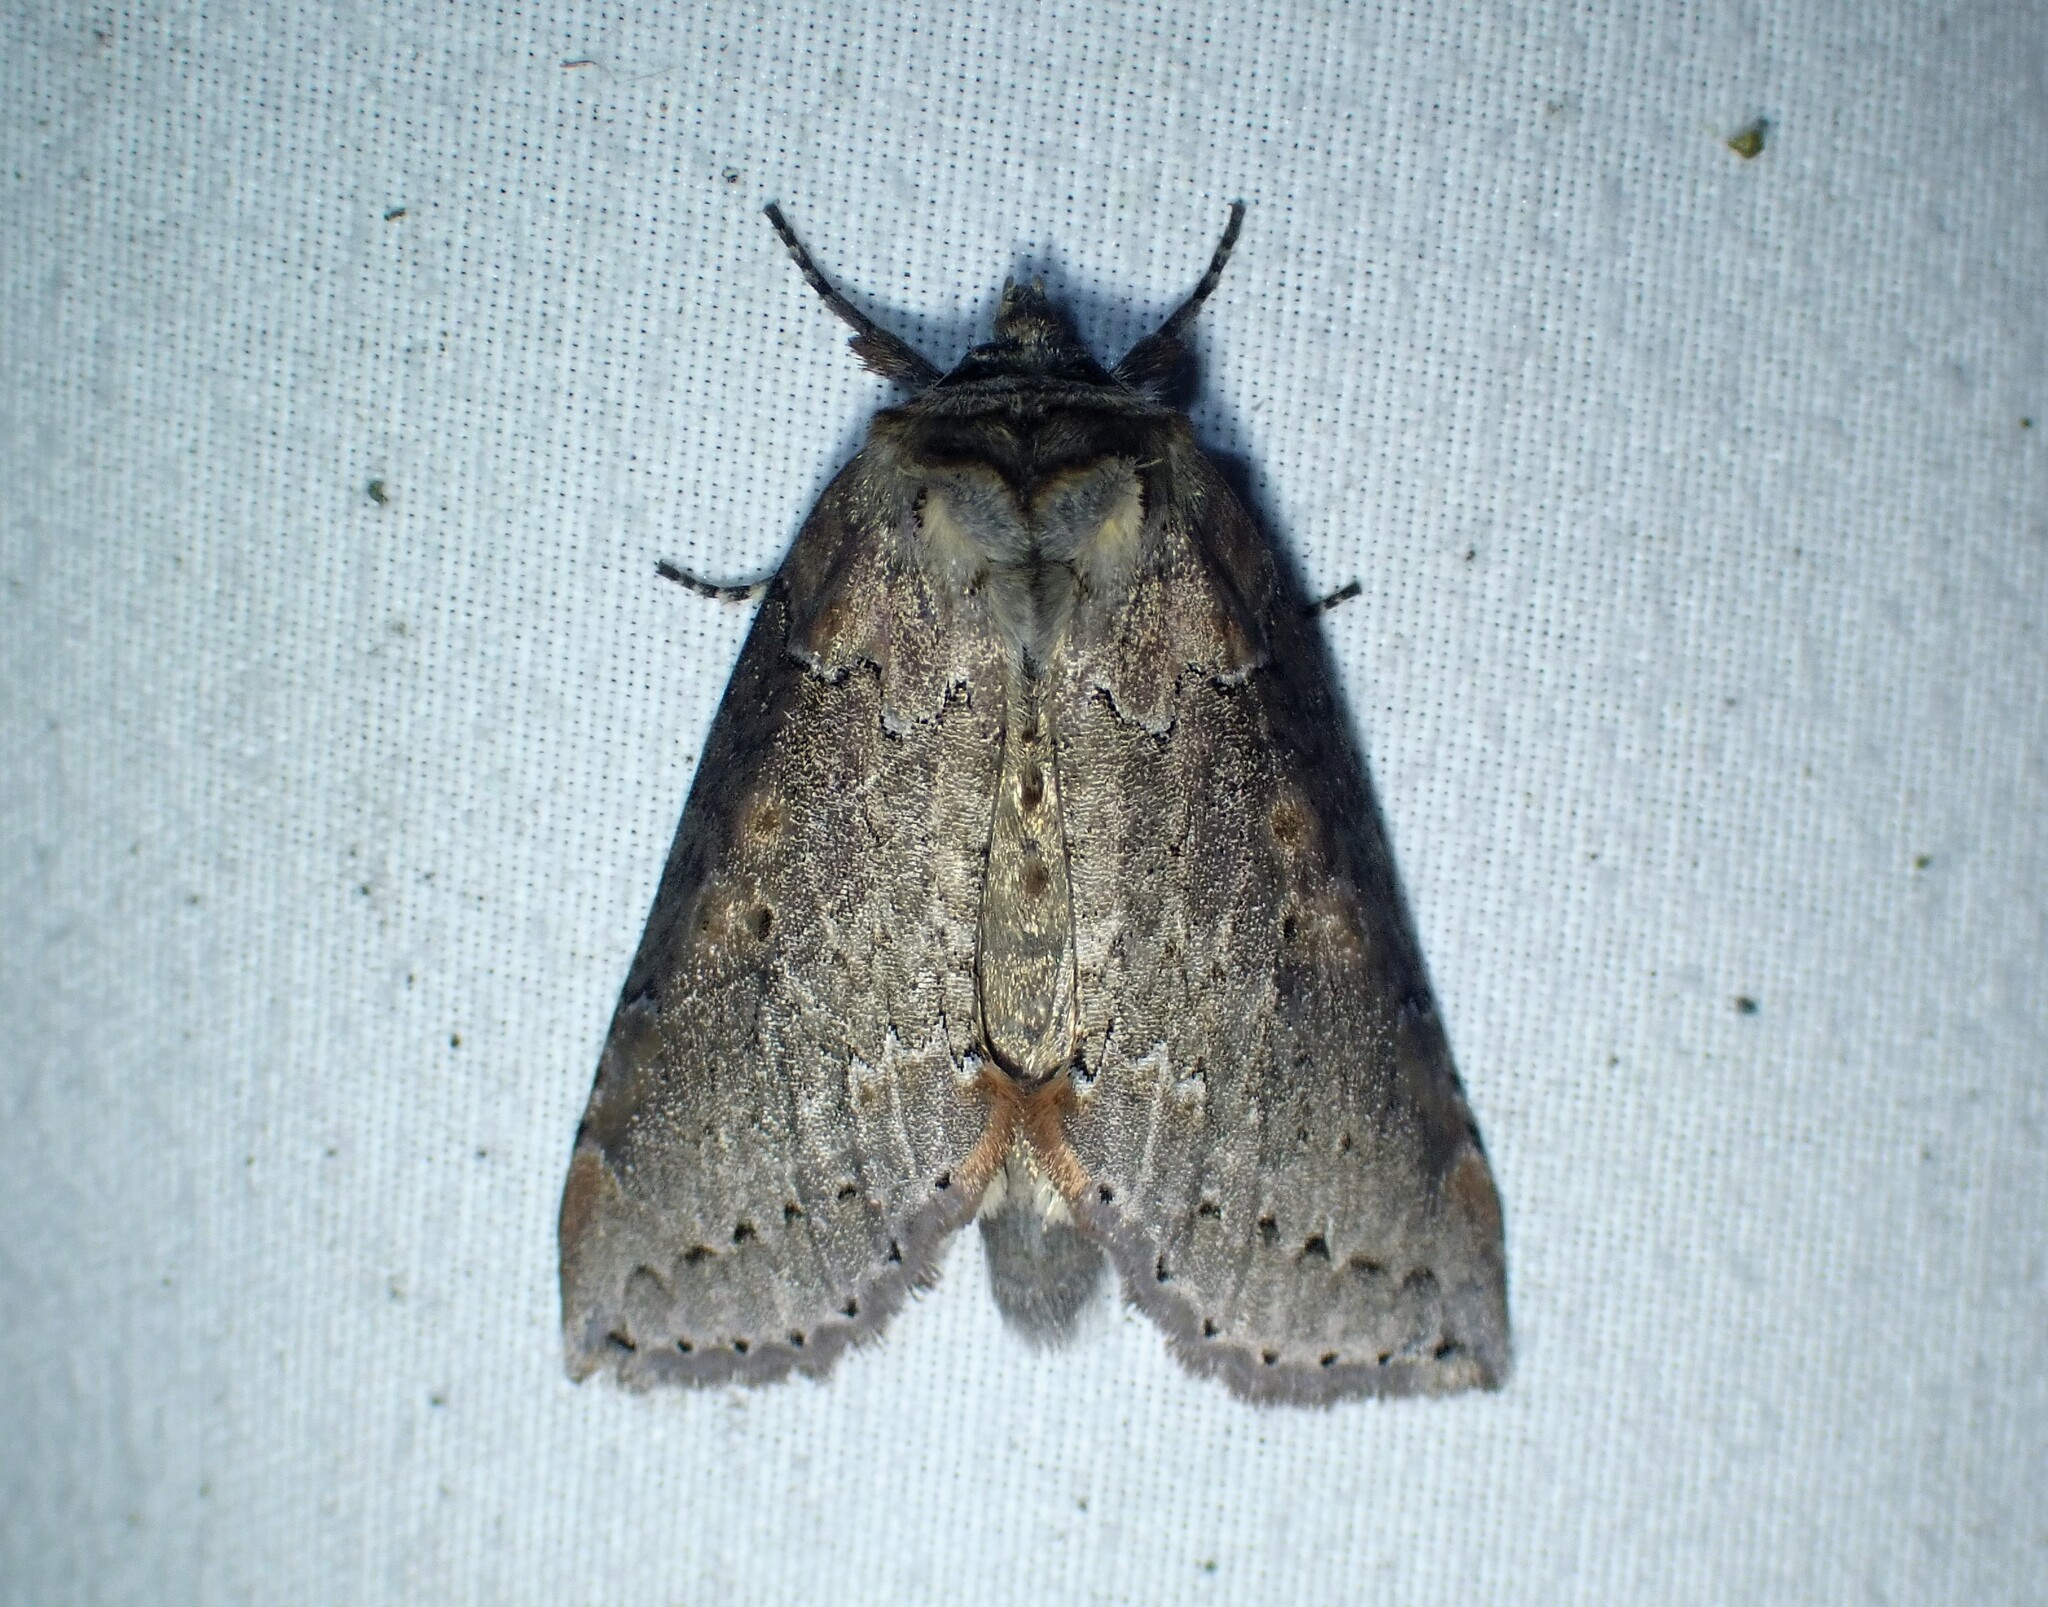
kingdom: Animalia
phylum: Arthropoda
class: Insecta
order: Lepidoptera
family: Drepanidae
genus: Pseudothyatira
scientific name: Pseudothyatira cymatophoroides
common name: Tufted thyatirid moth
